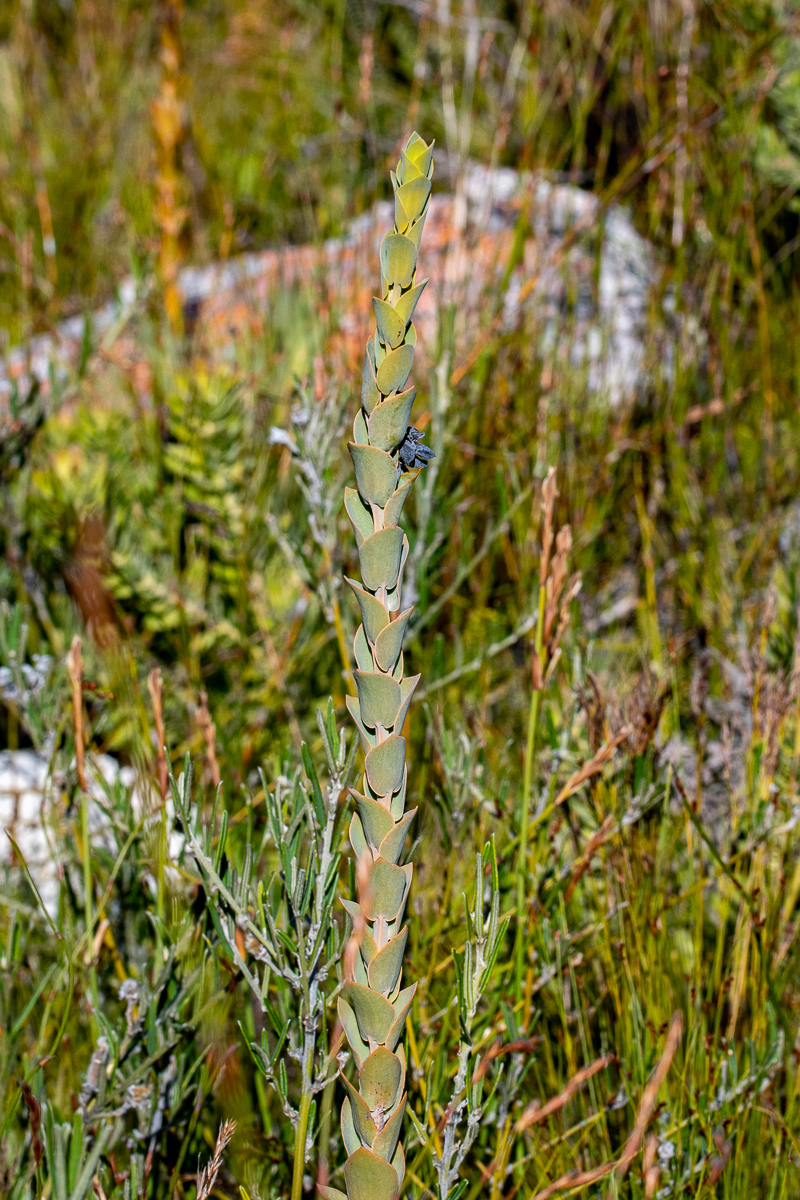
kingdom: Plantae
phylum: Tracheophyta
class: Magnoliopsida
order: Santalales
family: Thesiaceae
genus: Thesium
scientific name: Thesium euphorbioides
